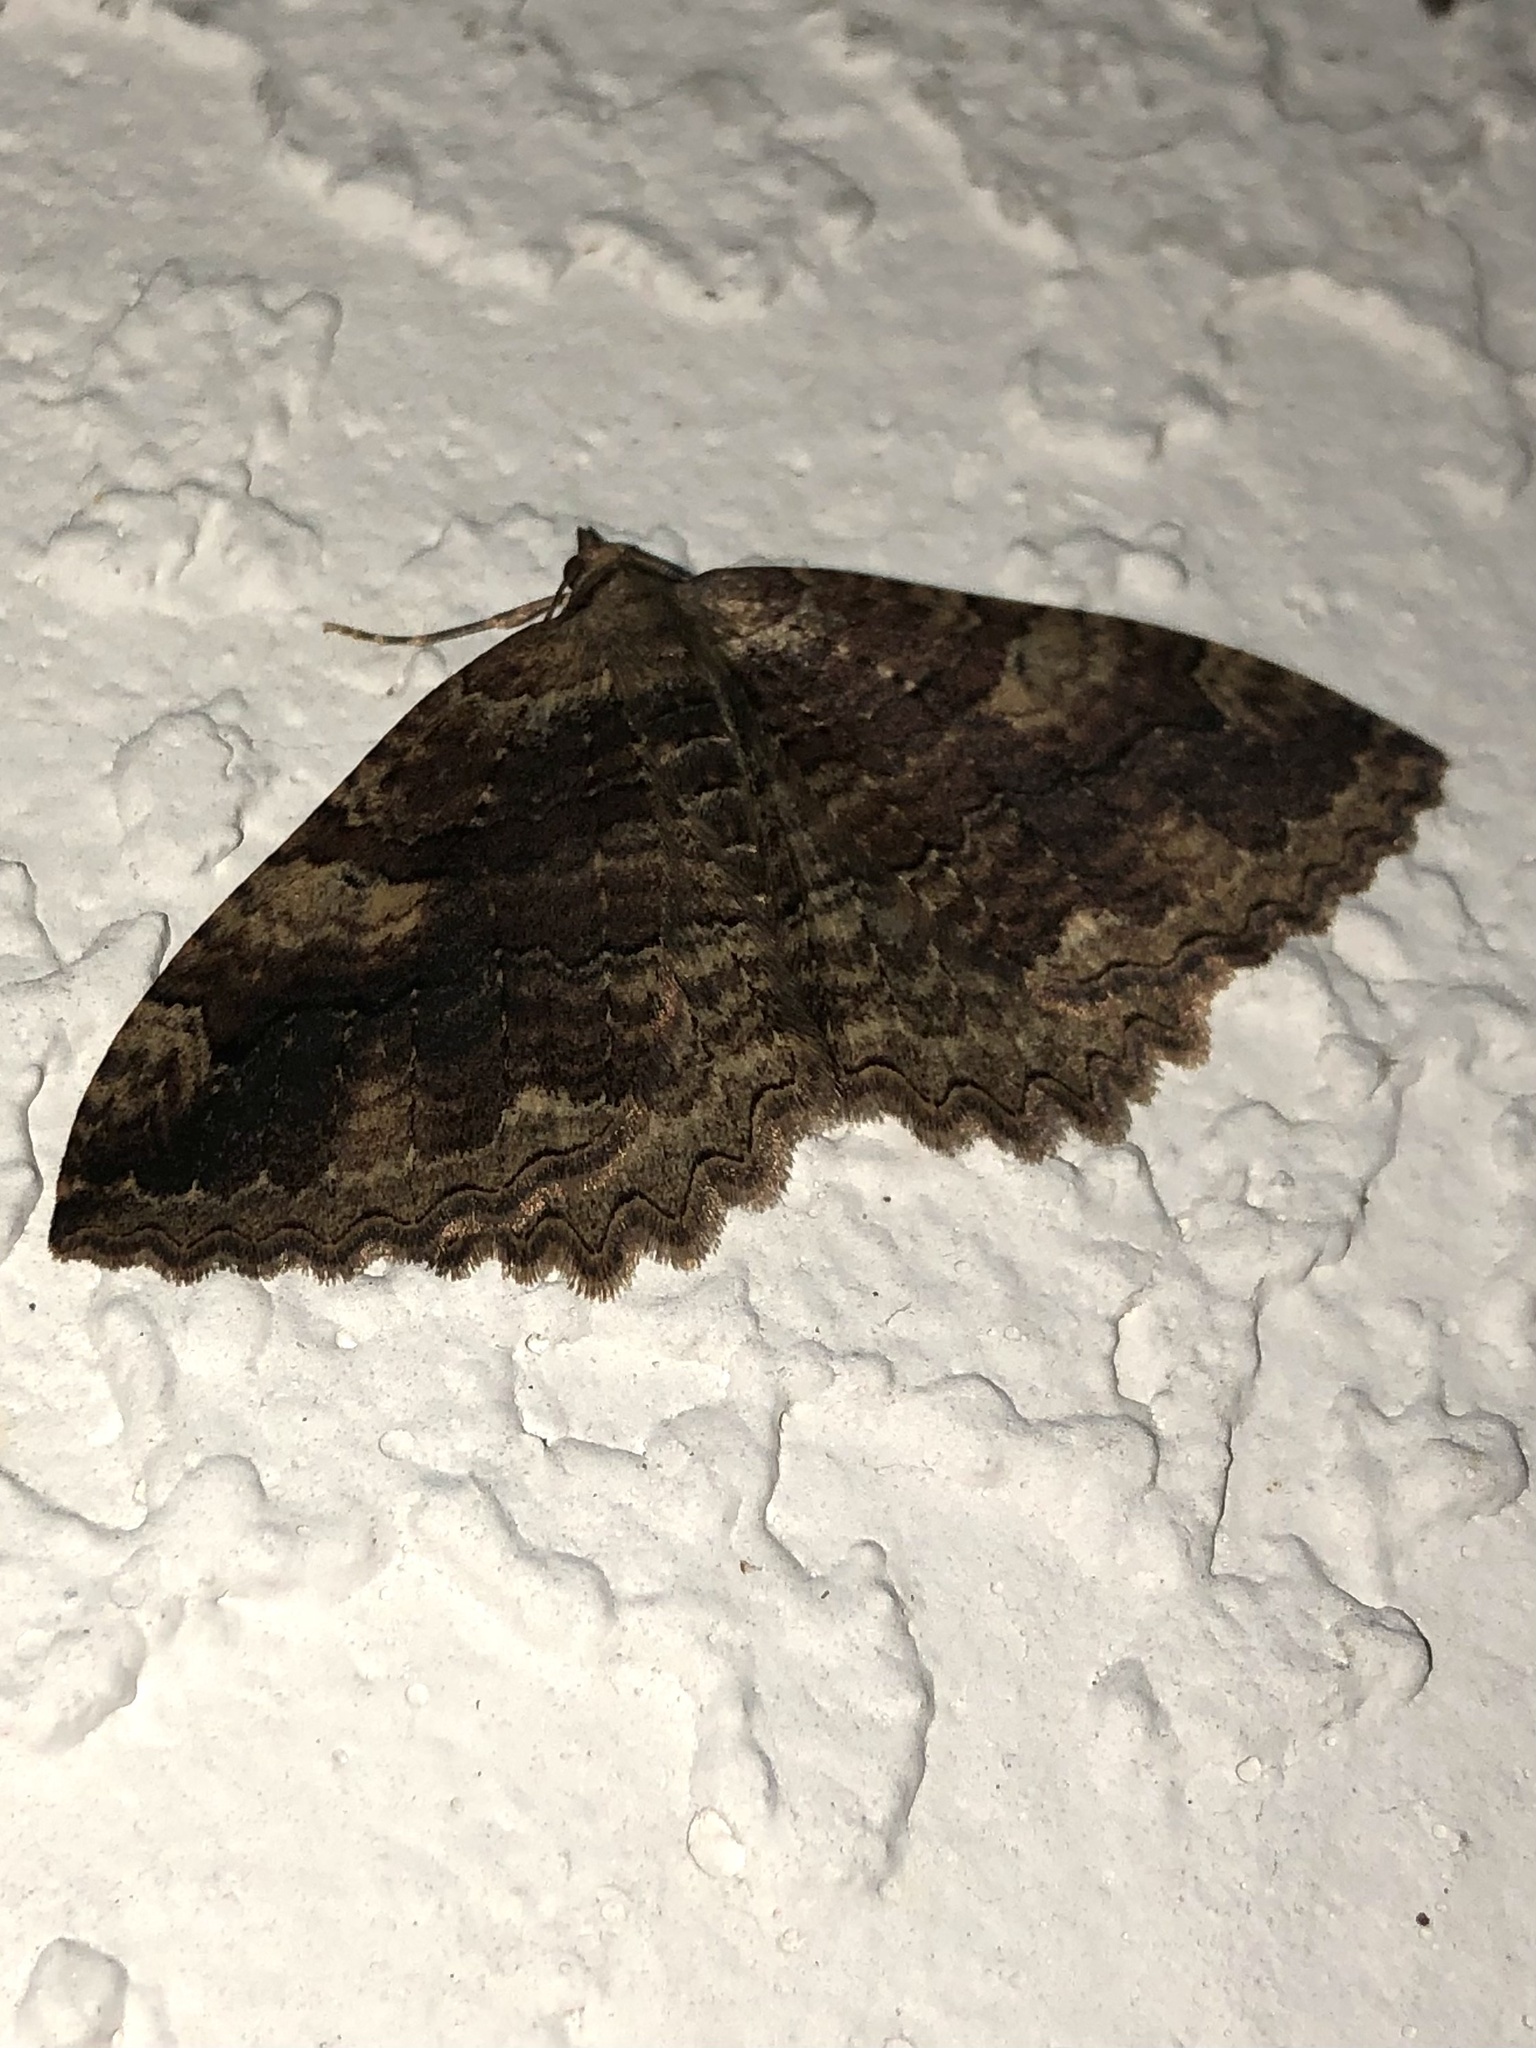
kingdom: Animalia
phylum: Arthropoda
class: Insecta
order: Lepidoptera
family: Geometridae
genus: Triphosa
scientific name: Triphosa haesitata
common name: Tissue moth
